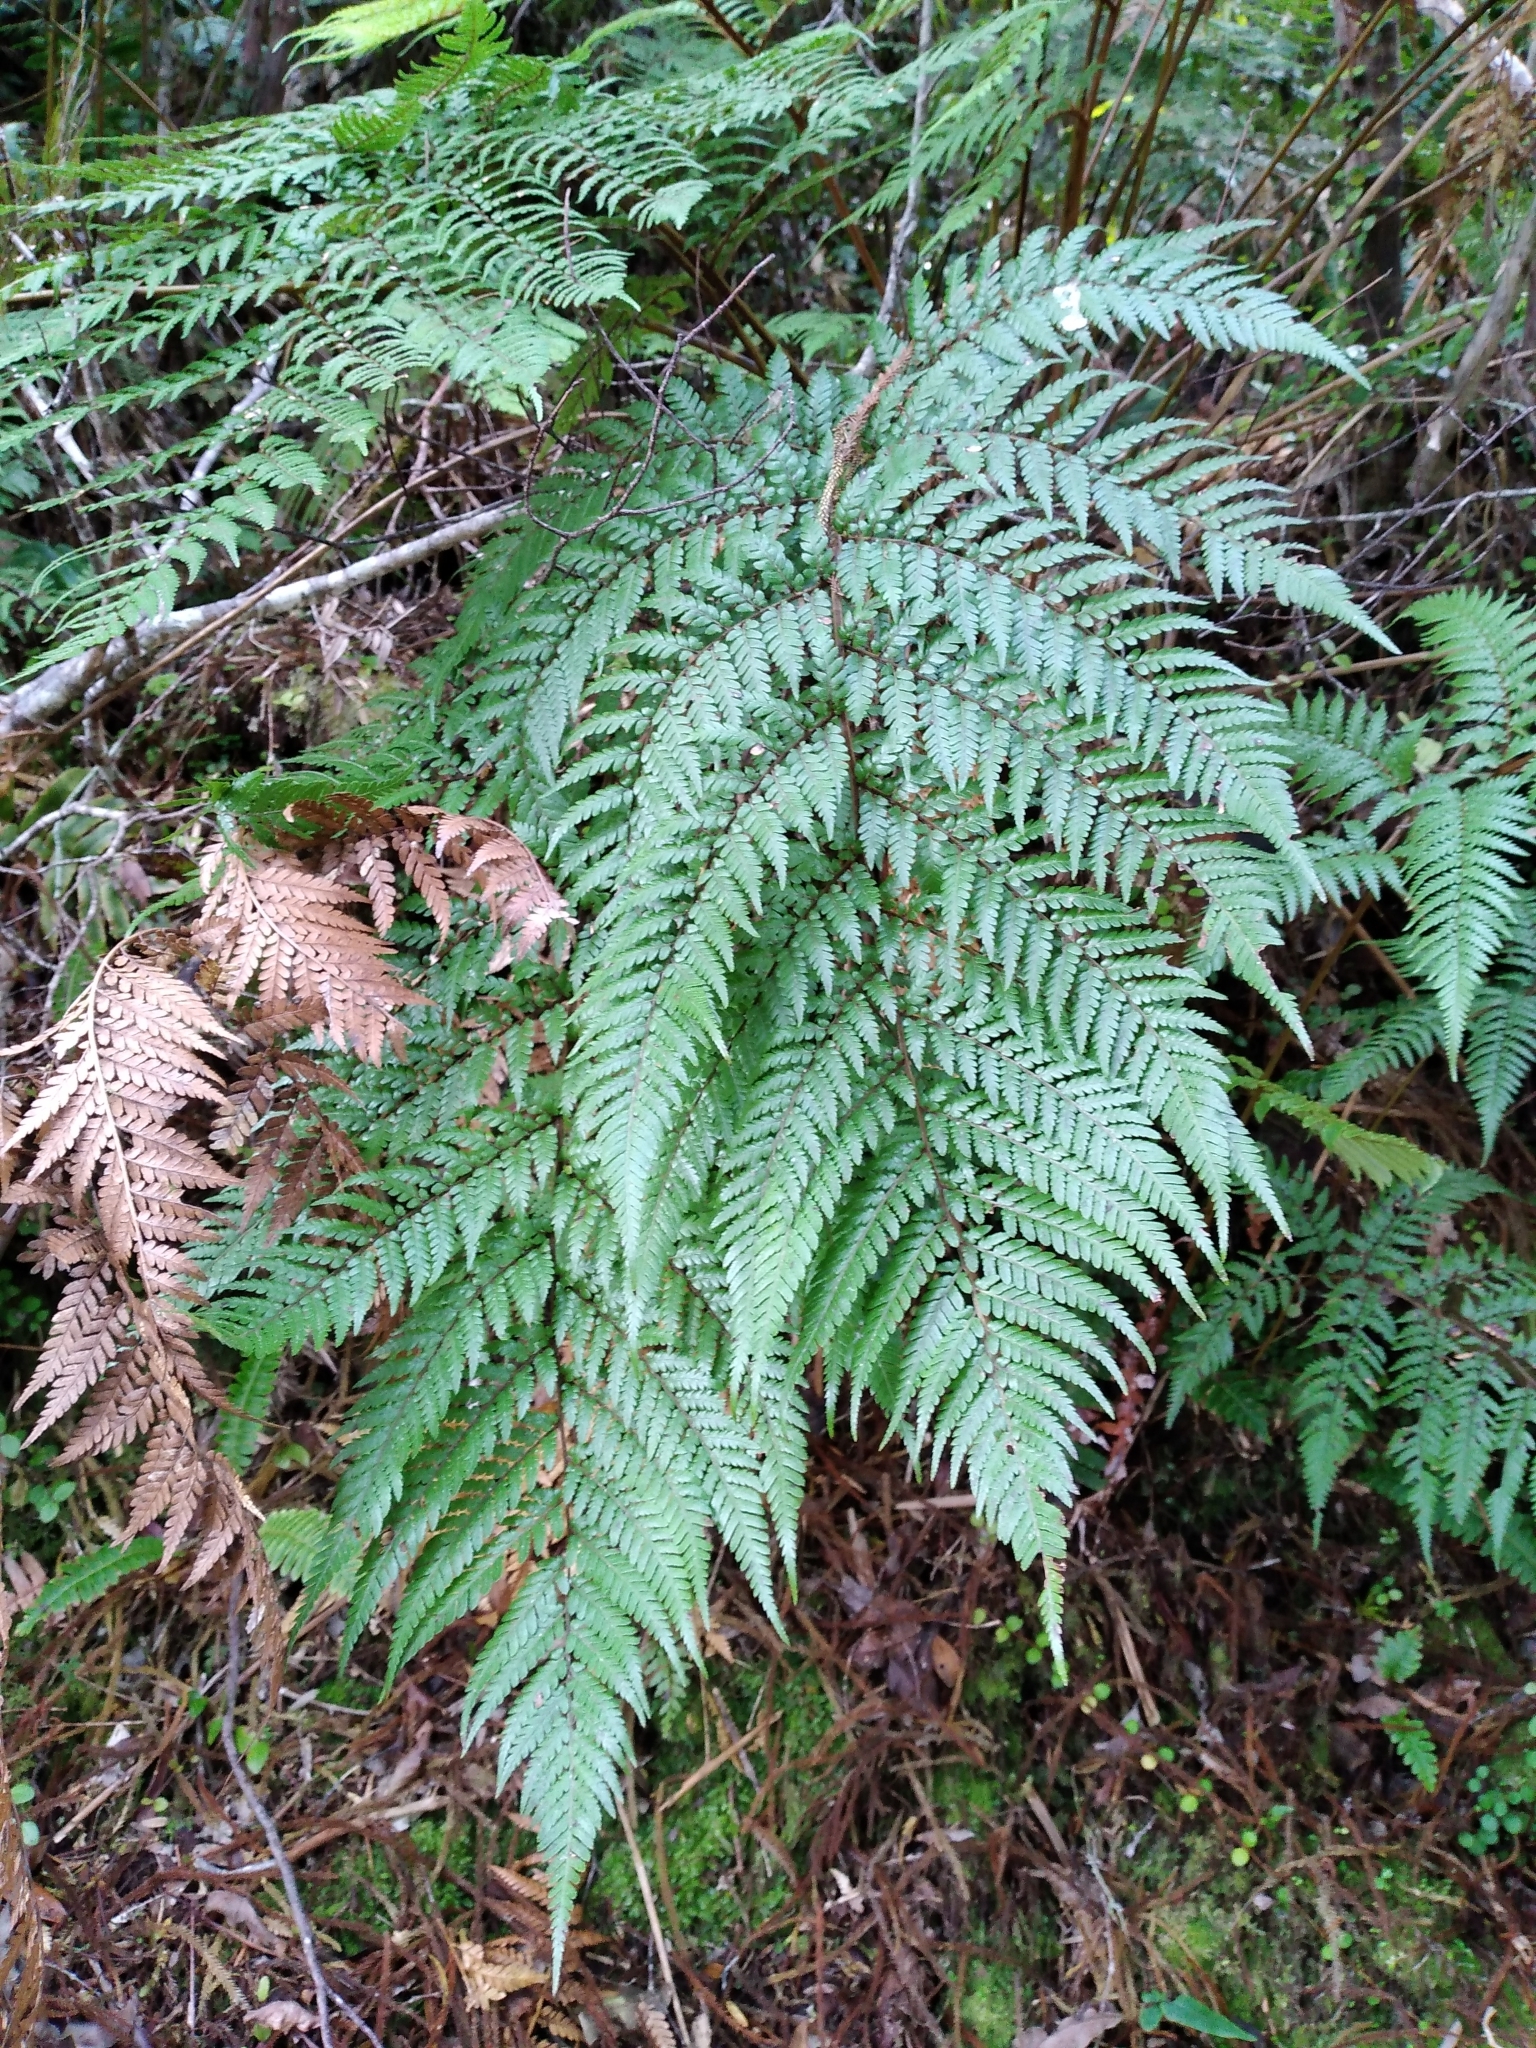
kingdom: Plantae
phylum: Tracheophyta
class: Polypodiopsida
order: Cyatheales
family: Dicksoniaceae
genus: Dicksonia
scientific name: Dicksonia lanata
